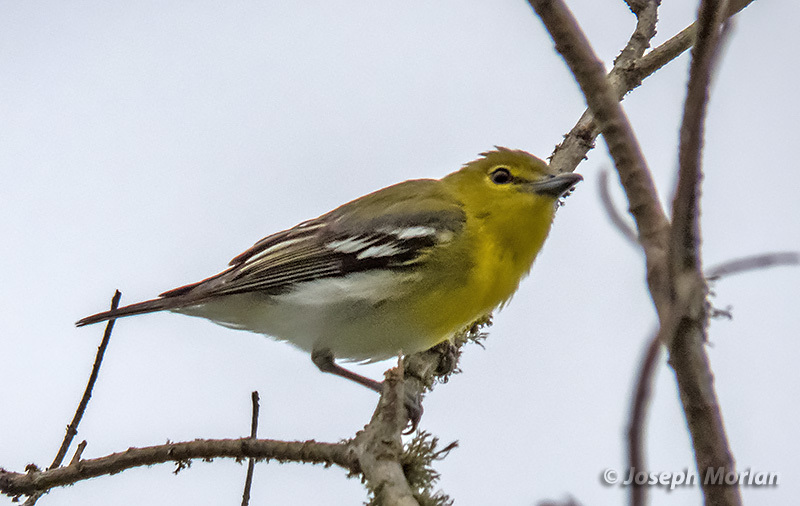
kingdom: Animalia
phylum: Chordata
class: Aves
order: Passeriformes
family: Vireonidae
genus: Vireo
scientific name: Vireo flavifrons
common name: Yellow-throated vireo
